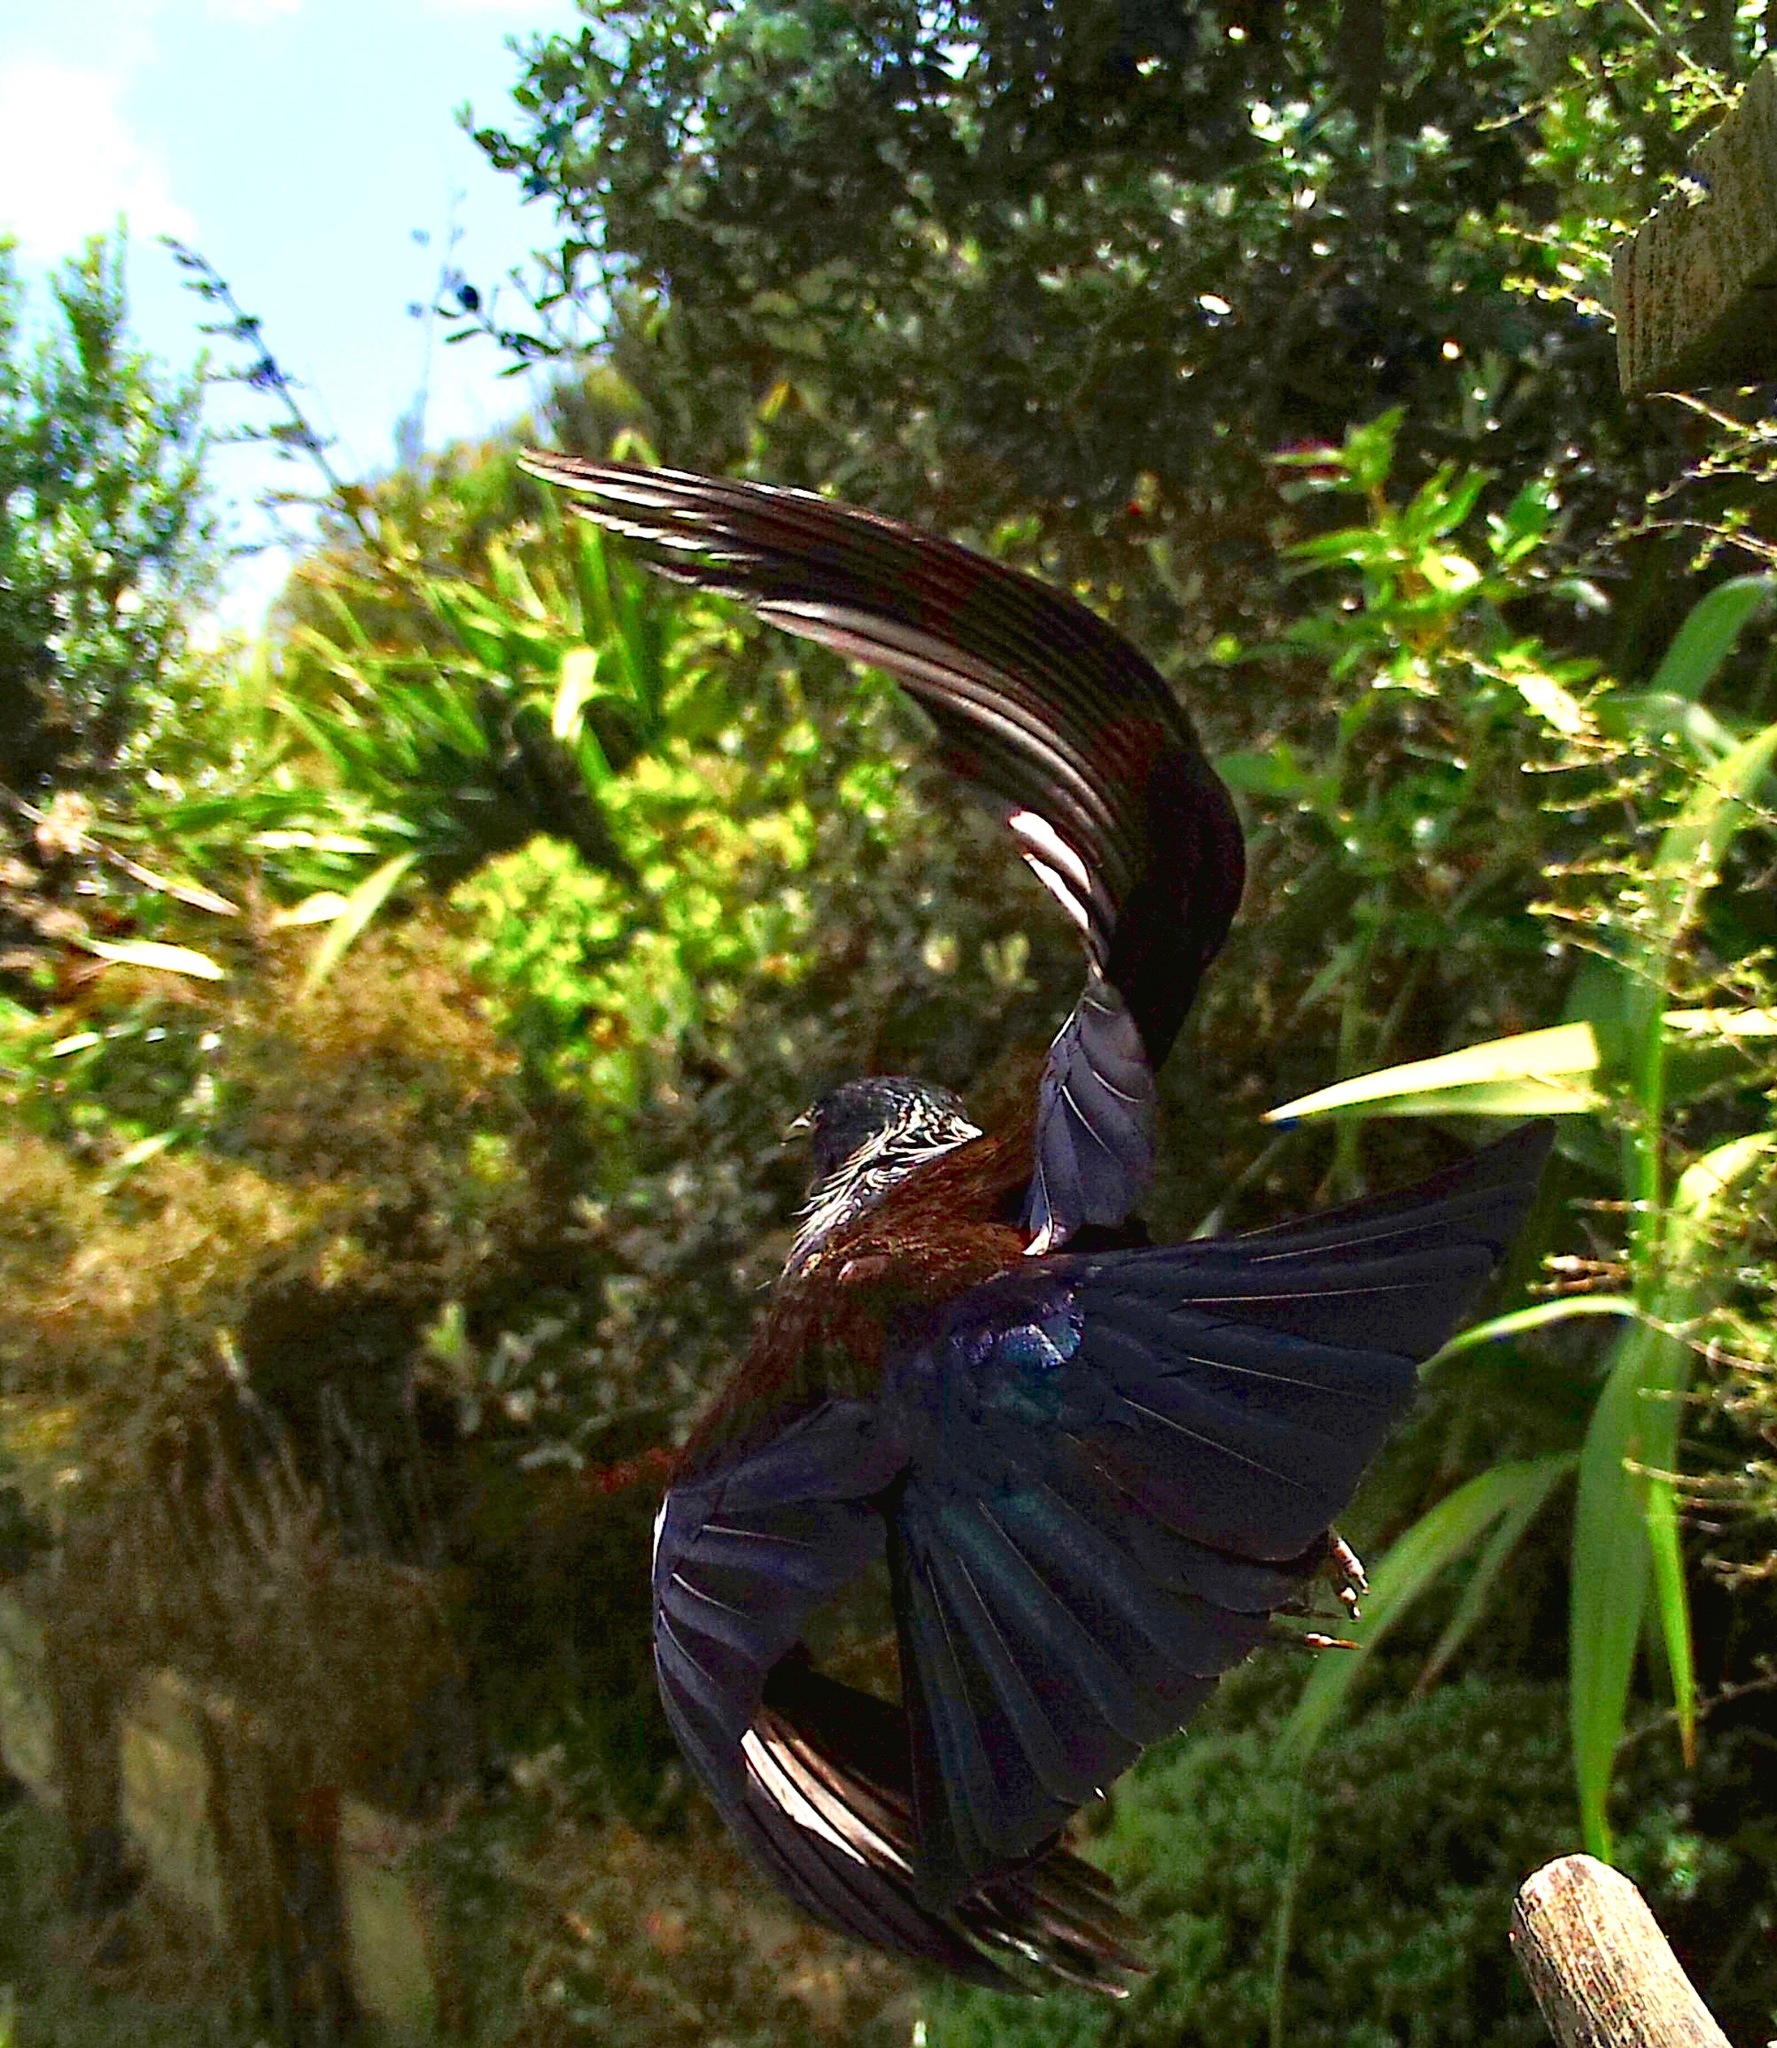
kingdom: Animalia
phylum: Chordata
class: Aves
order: Passeriformes
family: Meliphagidae
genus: Prosthemadera
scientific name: Prosthemadera novaeseelandiae
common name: Tui
